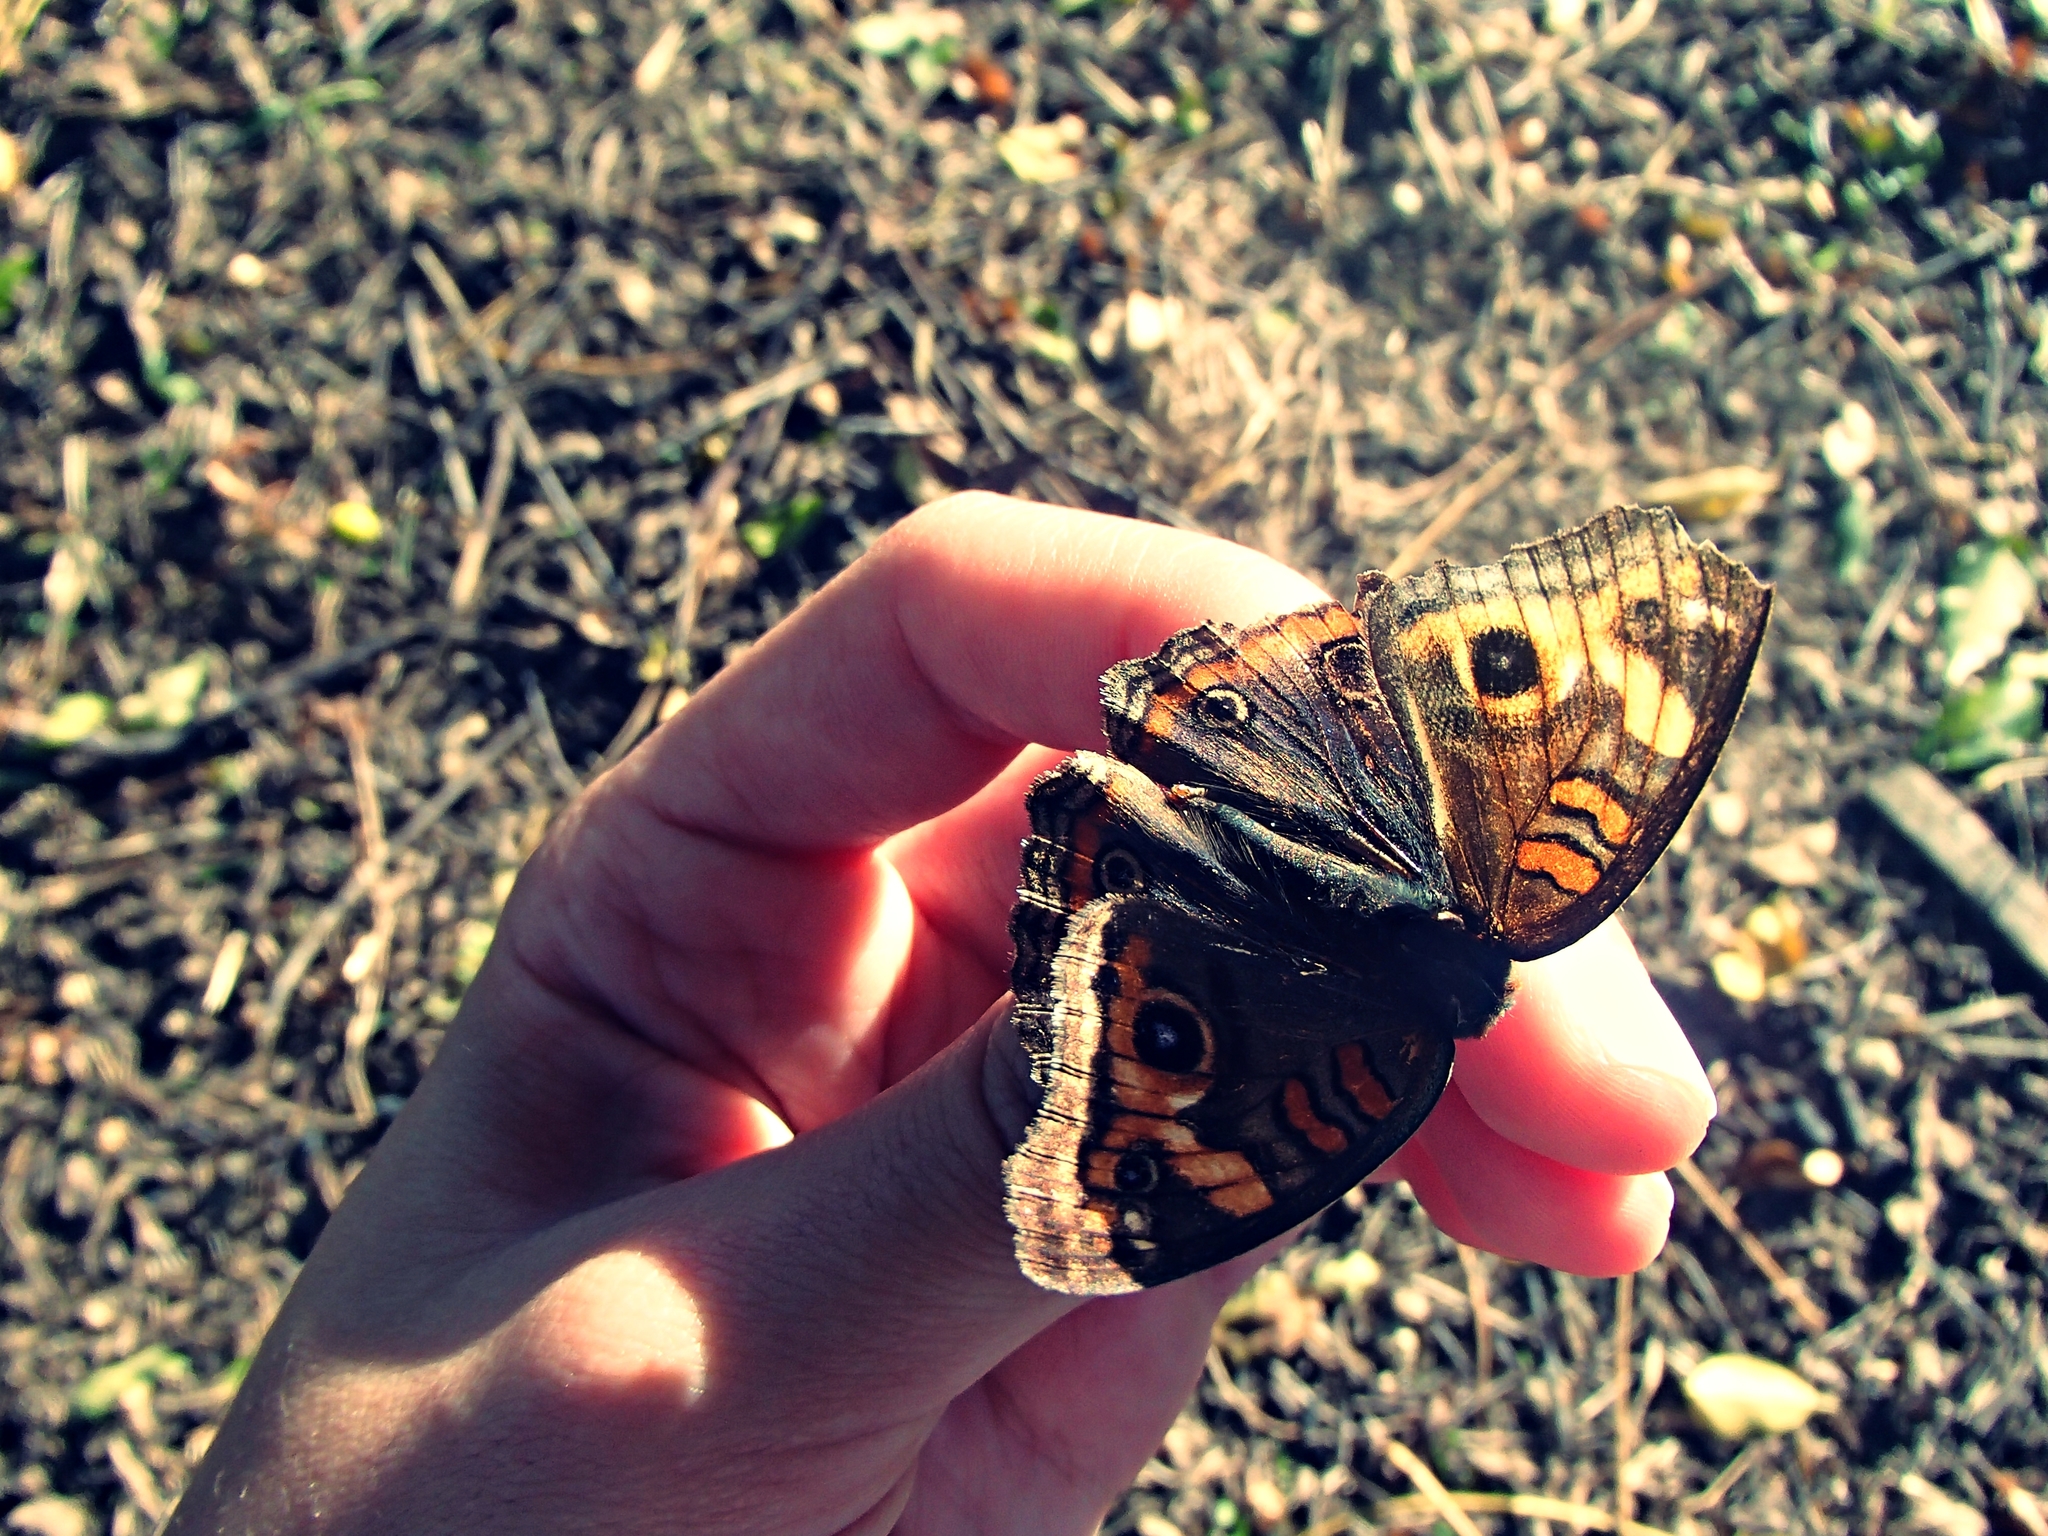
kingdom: Animalia
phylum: Arthropoda
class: Insecta
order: Lepidoptera
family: Nymphalidae
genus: Junonia
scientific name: Junonia lavinia
